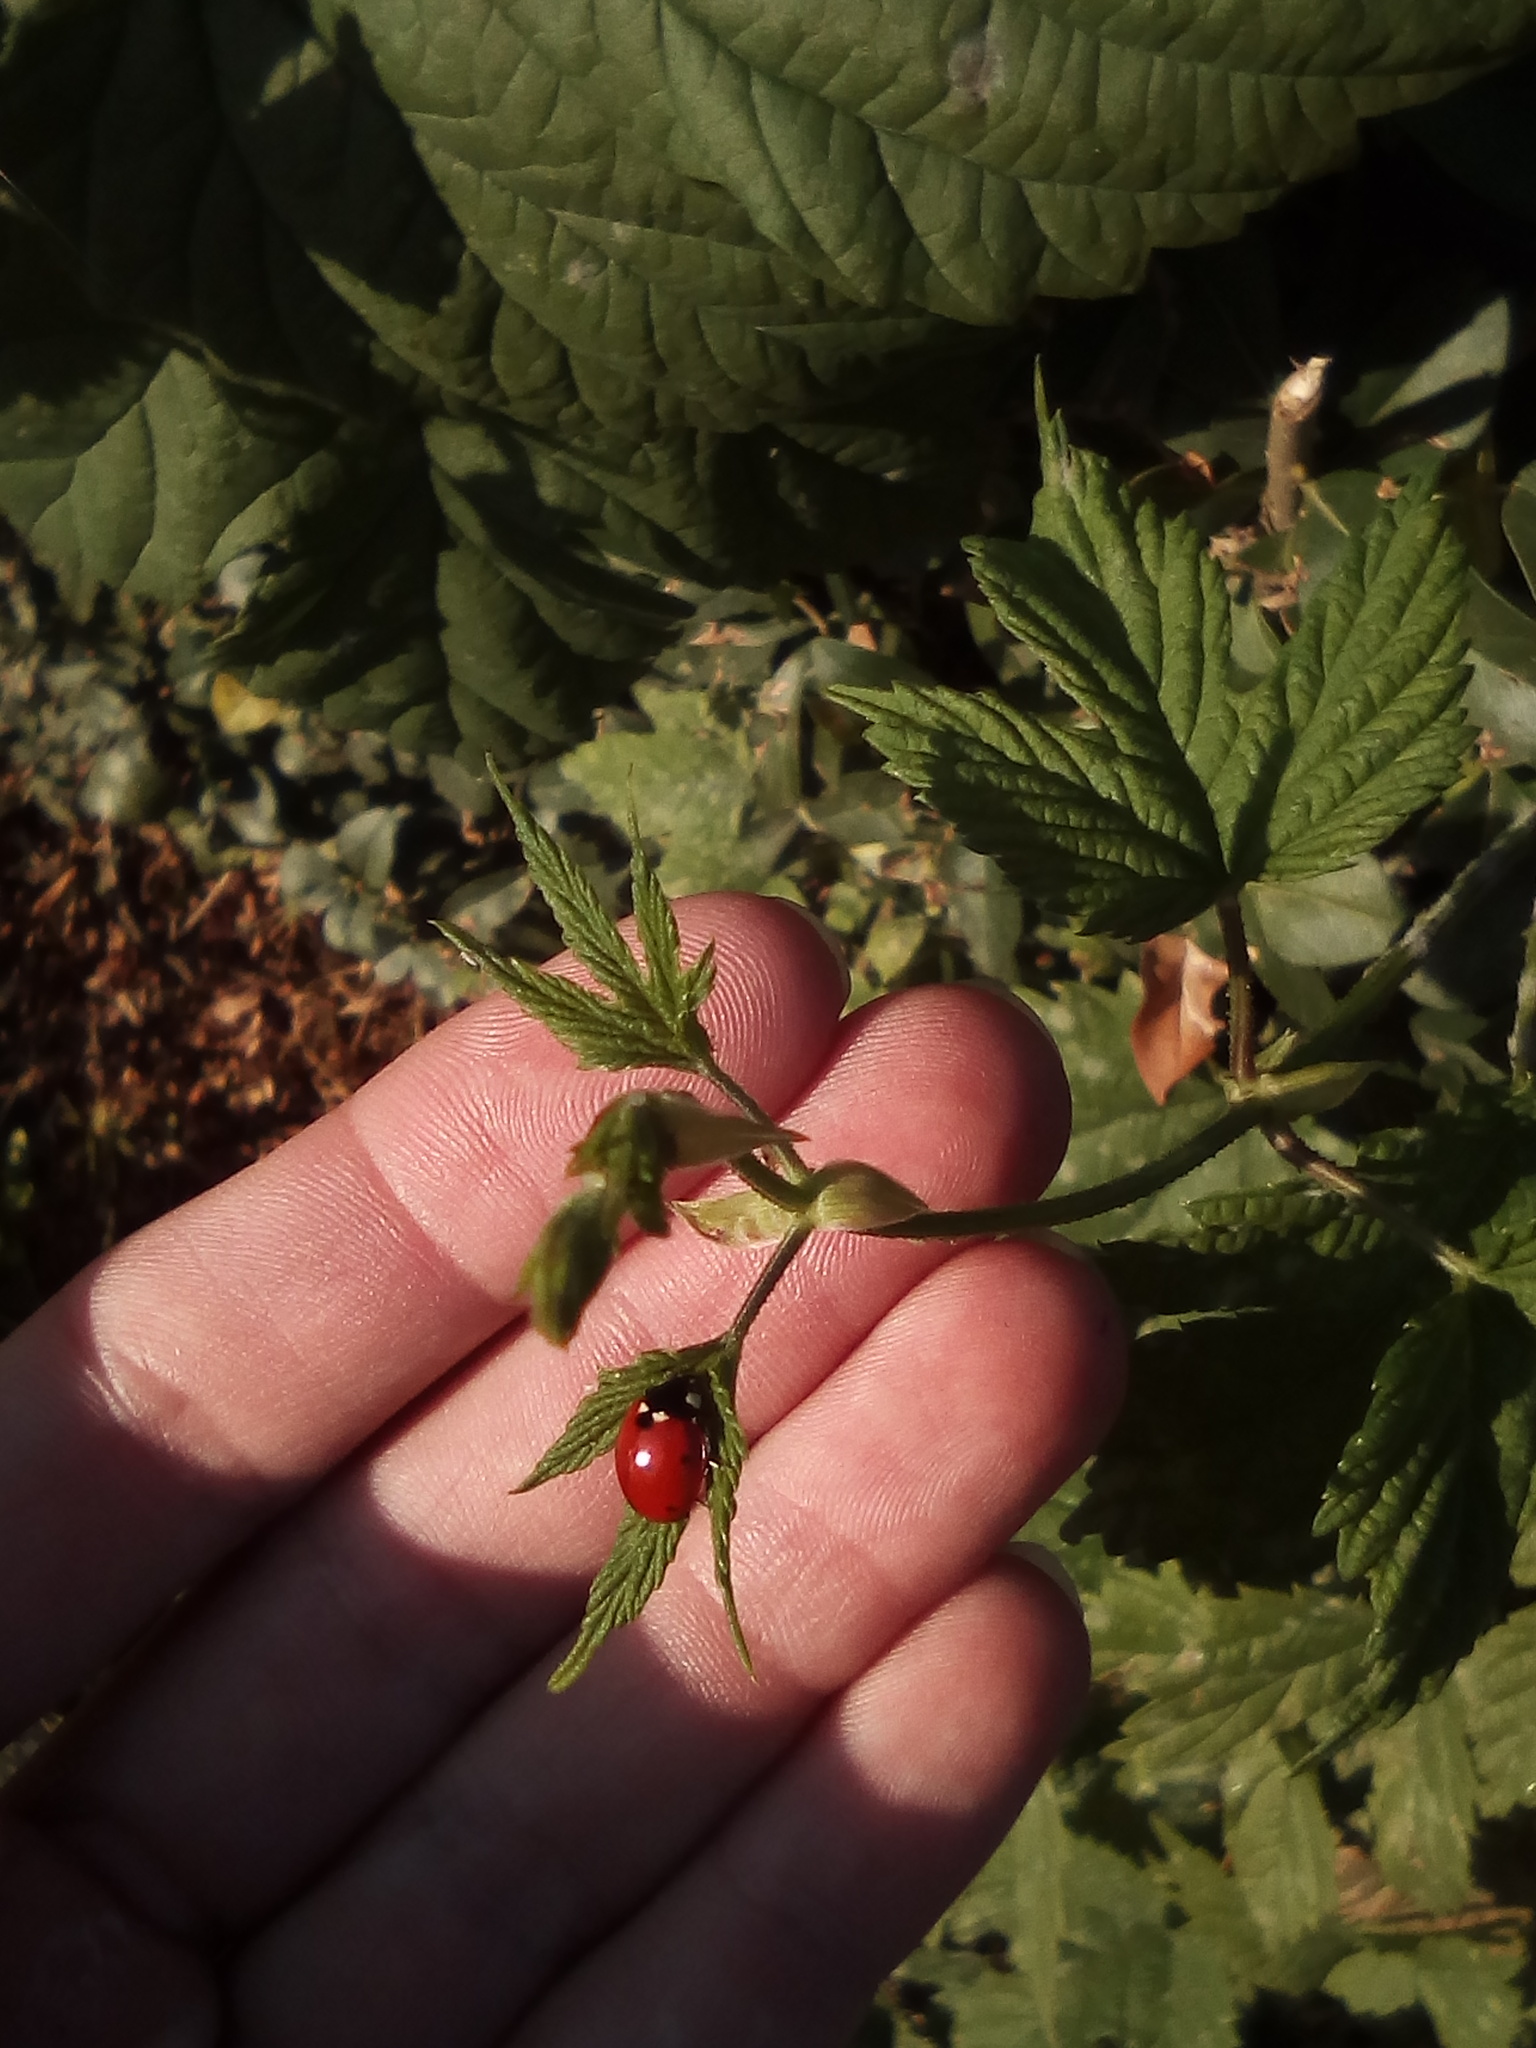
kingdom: Animalia
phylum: Arthropoda
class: Insecta
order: Coleoptera
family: Coccinellidae
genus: Coccinella
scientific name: Coccinella septempunctata
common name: Sevenspotted lady beetle
